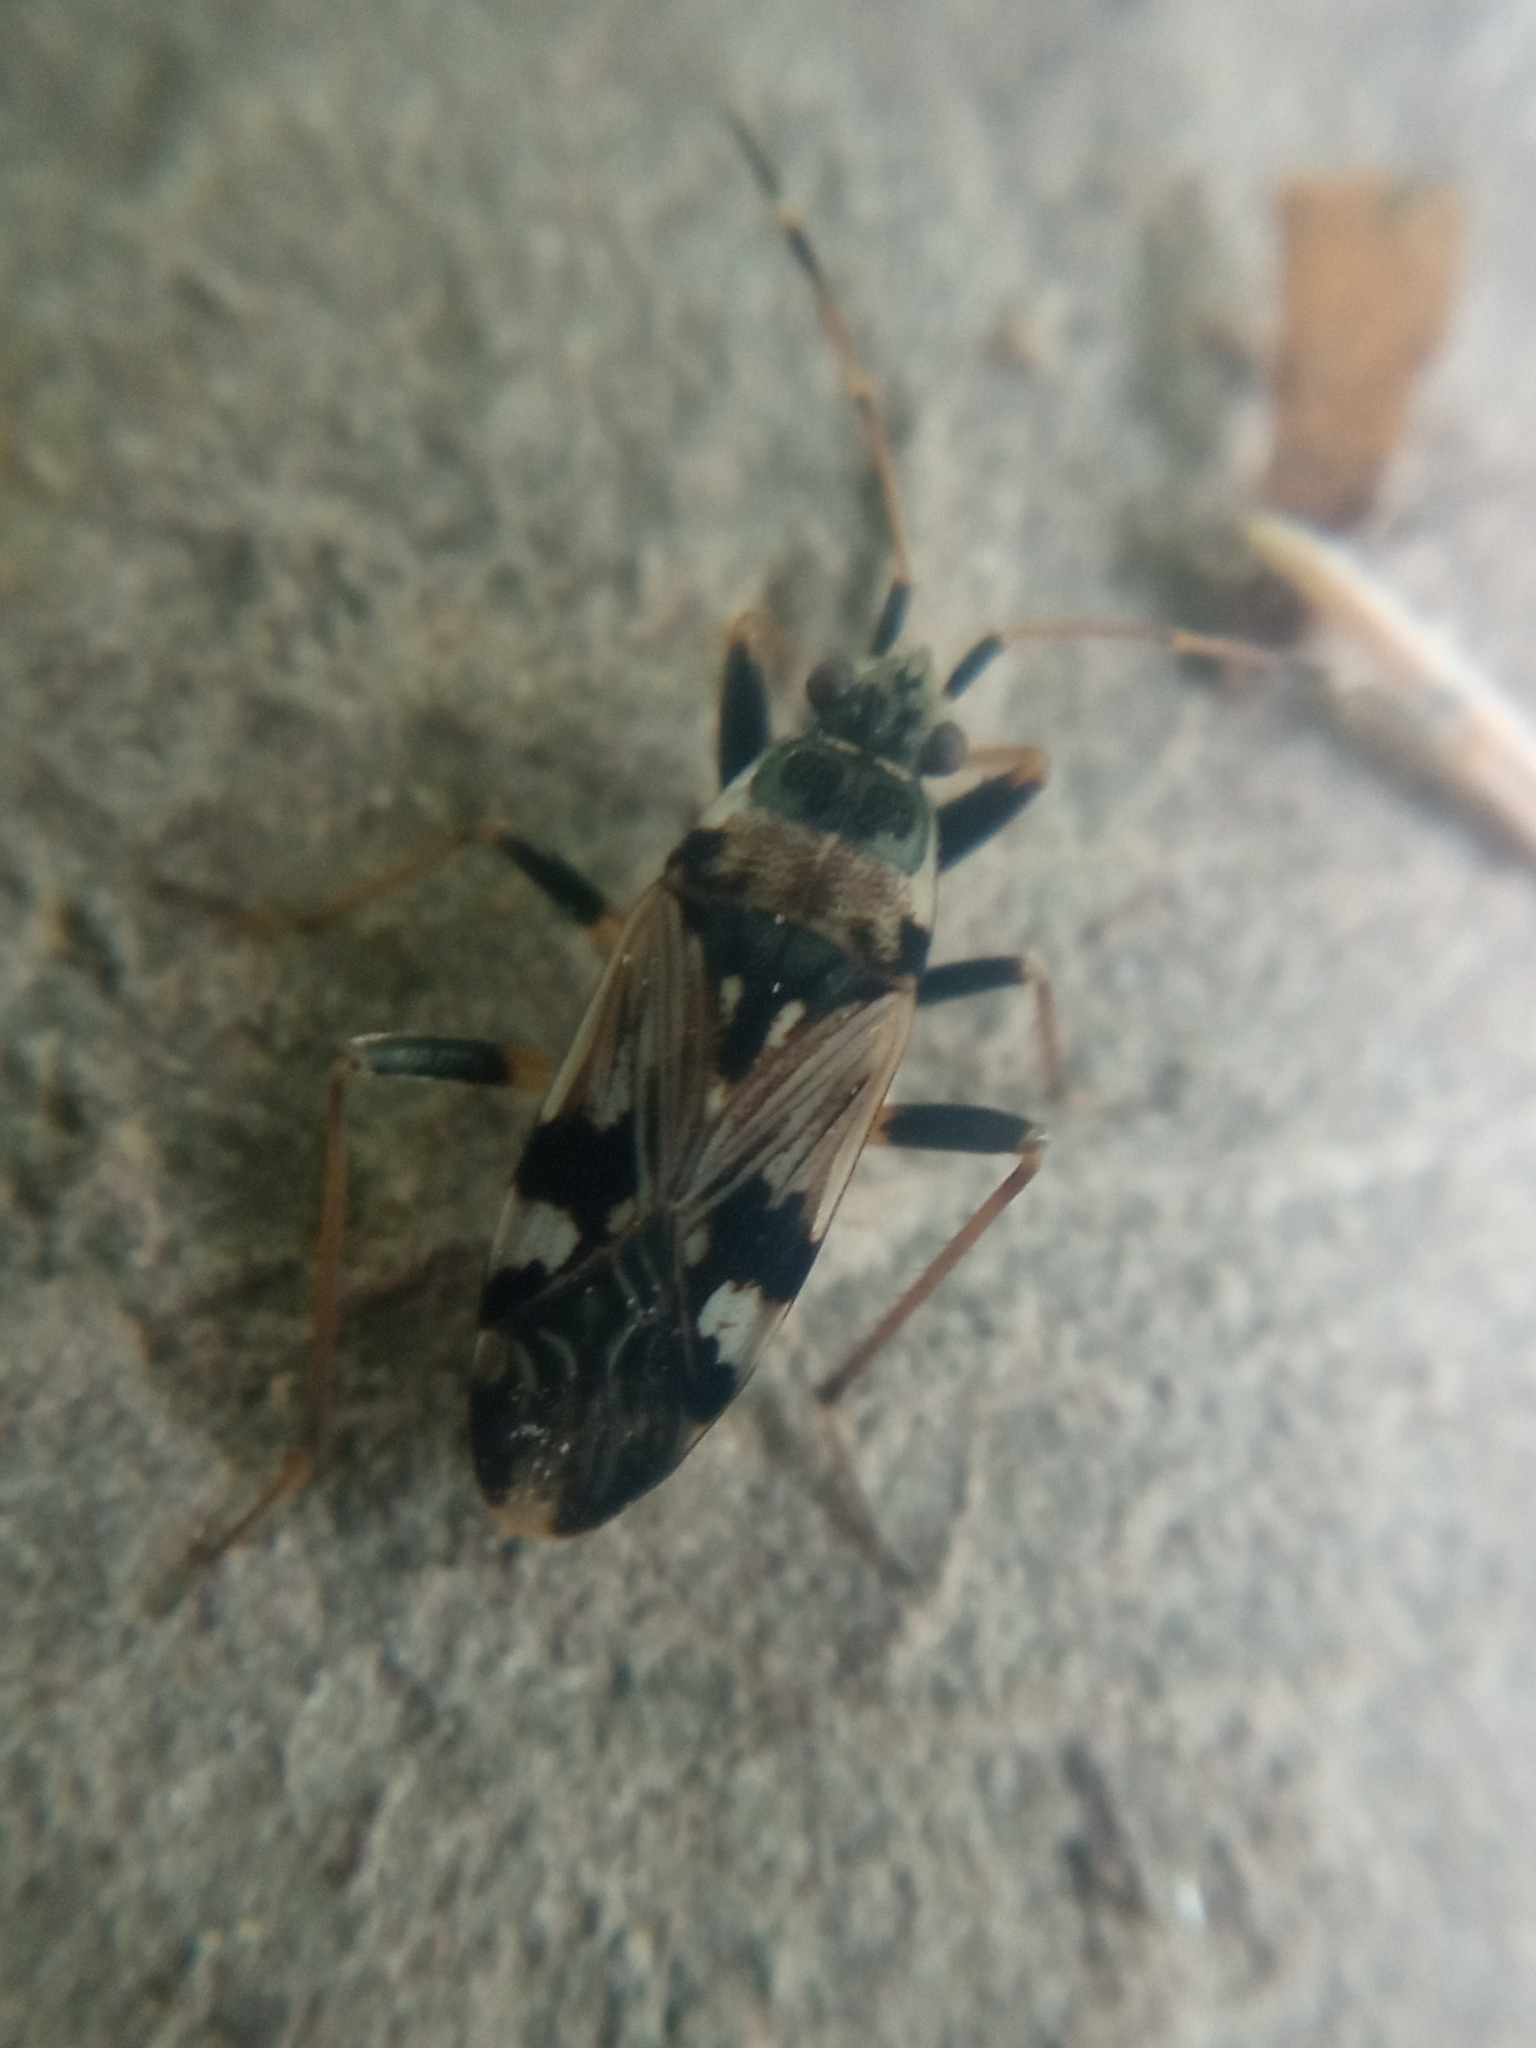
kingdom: Animalia
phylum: Arthropoda
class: Insecta
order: Hemiptera
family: Rhyparochromidae
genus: Beosus
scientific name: Beosus maritimus
